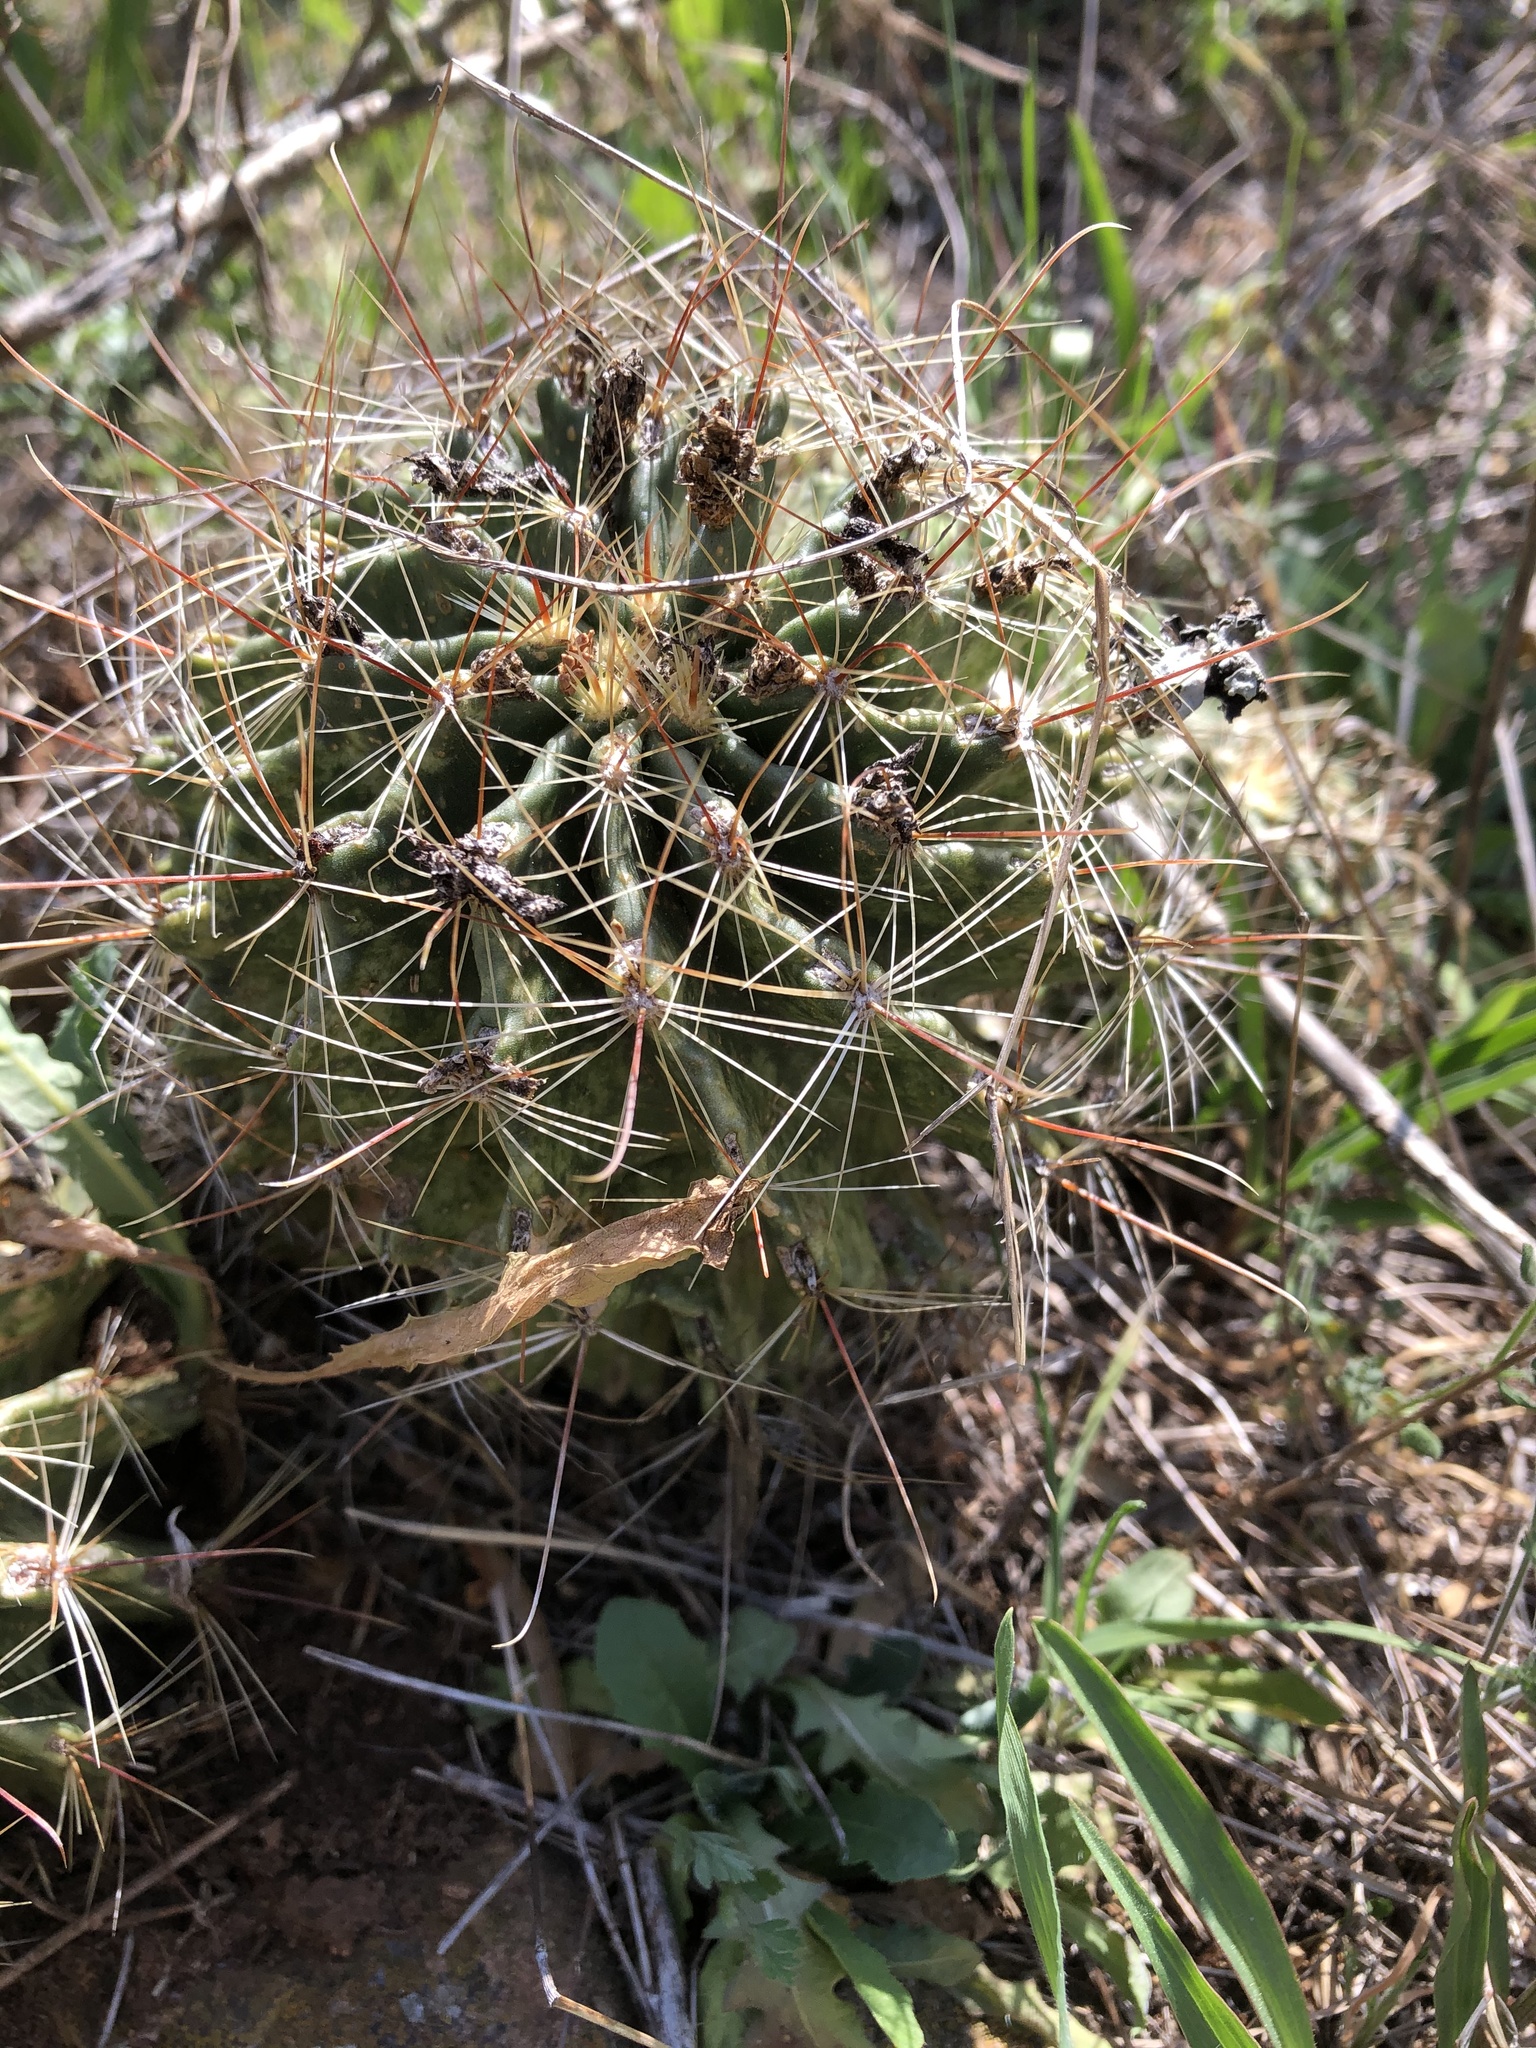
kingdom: Plantae
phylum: Tracheophyta
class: Magnoliopsida
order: Caryophyllales
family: Cactaceae
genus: Thelocactus
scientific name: Thelocactus setispinus
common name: Miniature barrel cactus
